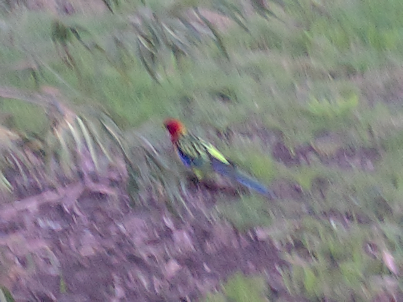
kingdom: Animalia
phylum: Chordata
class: Aves
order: Psittaciformes
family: Psittacidae
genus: Platycercus
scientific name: Platycercus eximius
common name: Eastern rosella
